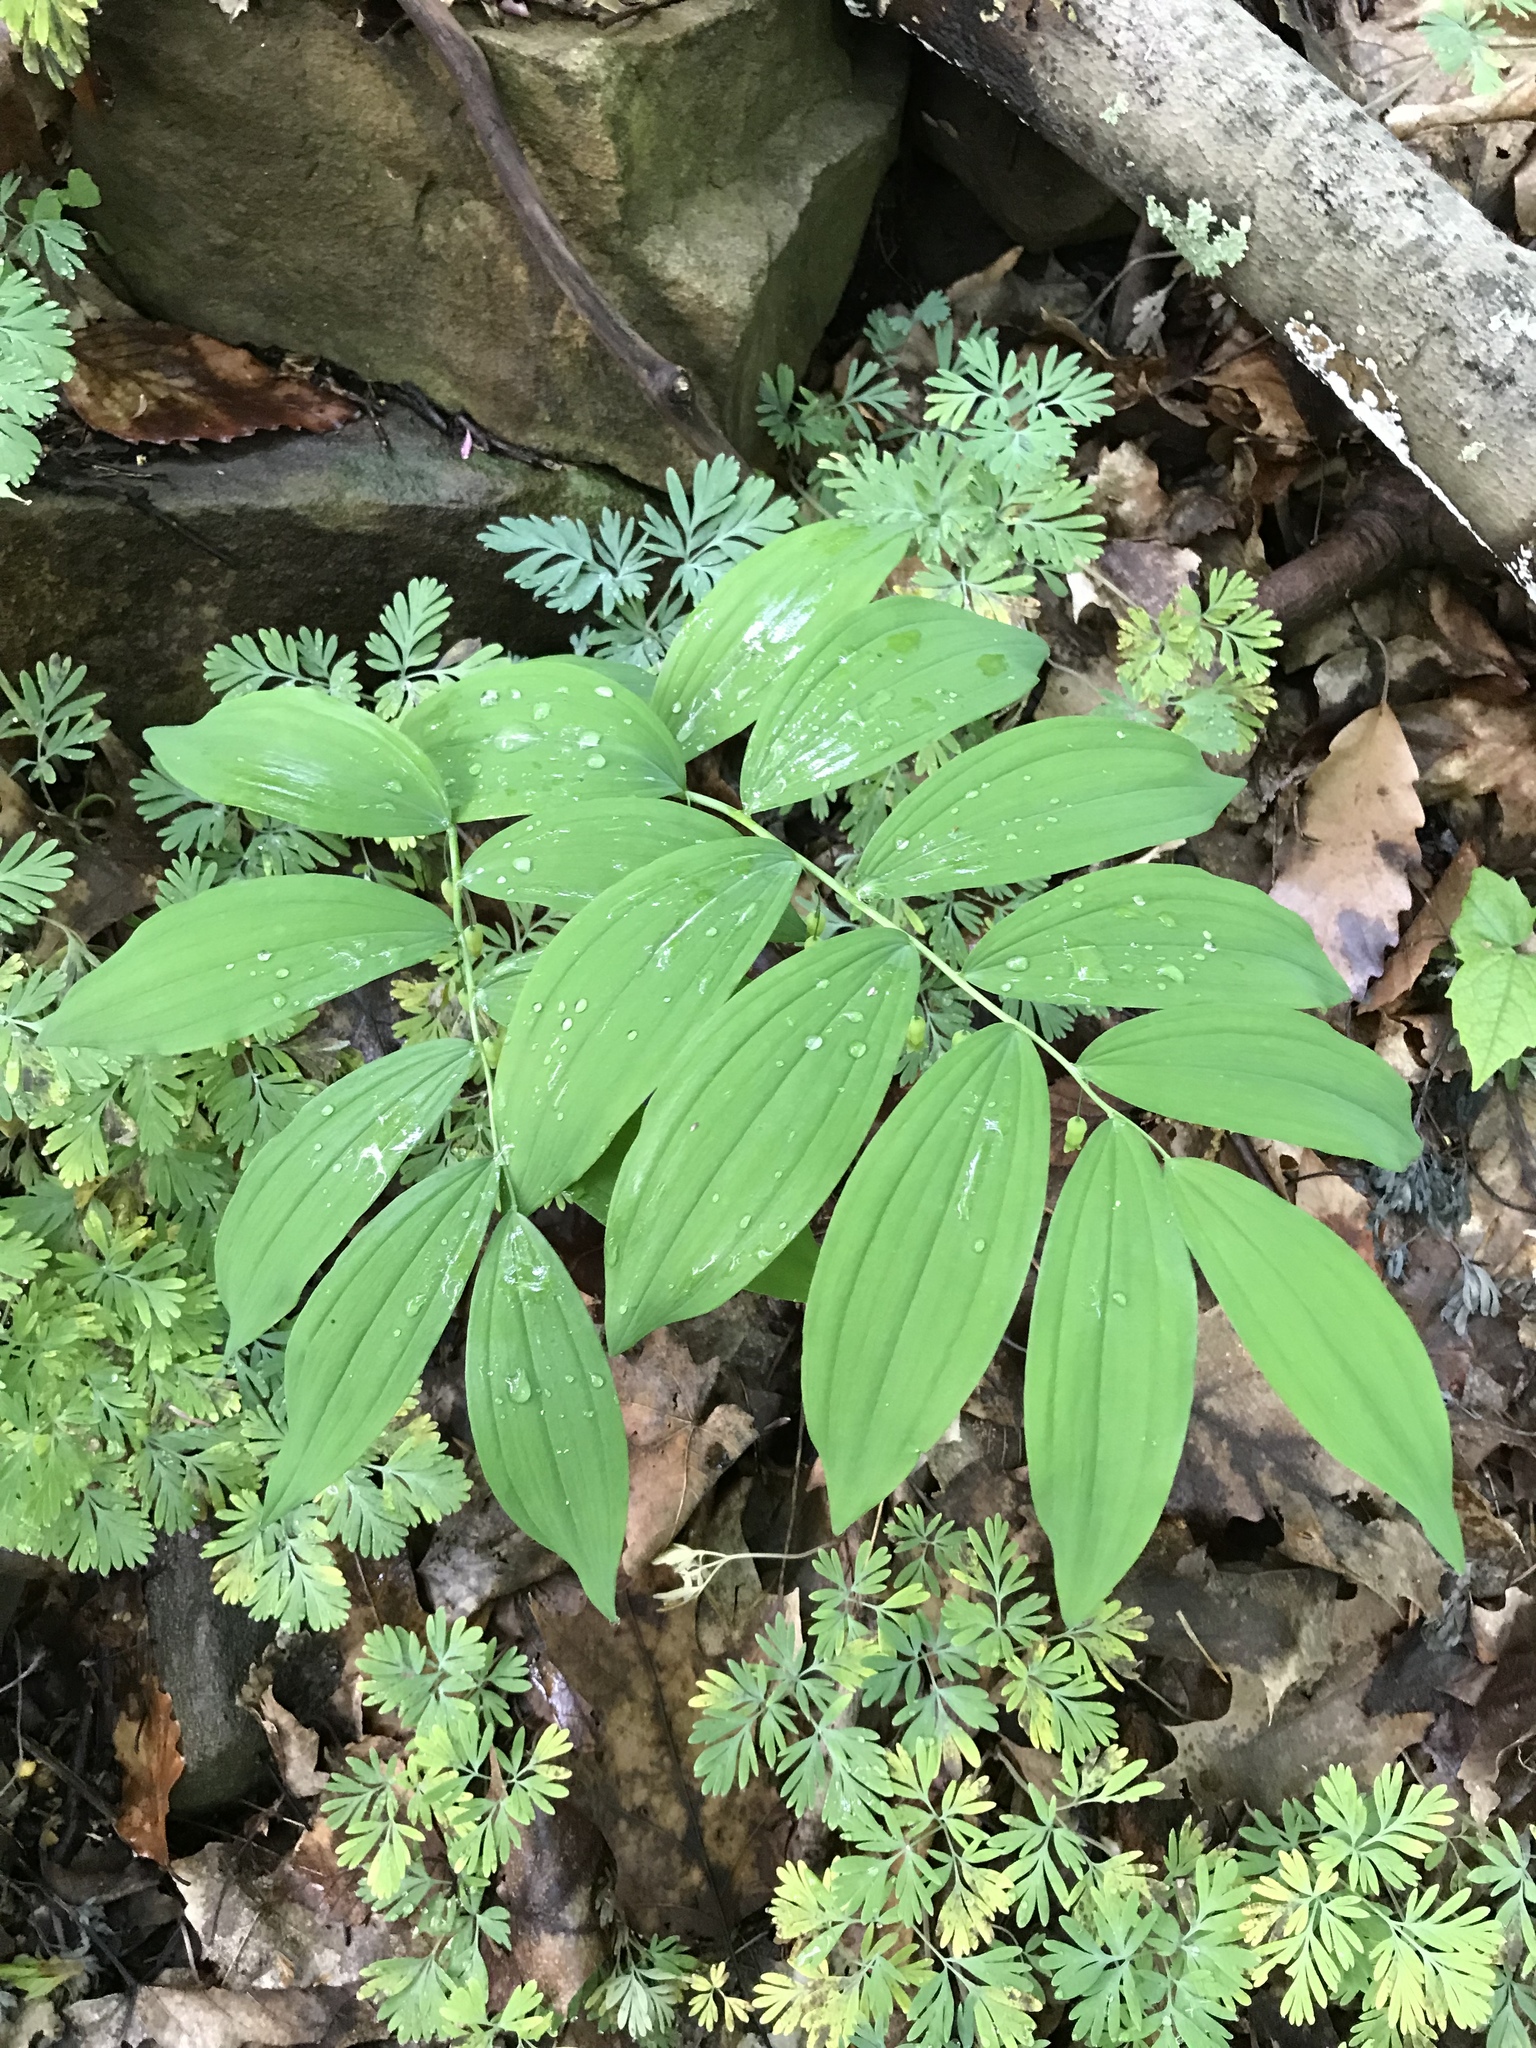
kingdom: Plantae
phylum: Tracheophyta
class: Liliopsida
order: Asparagales
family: Asparagaceae
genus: Polygonatum
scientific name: Polygonatum pubescens
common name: Downy solomon's seal
